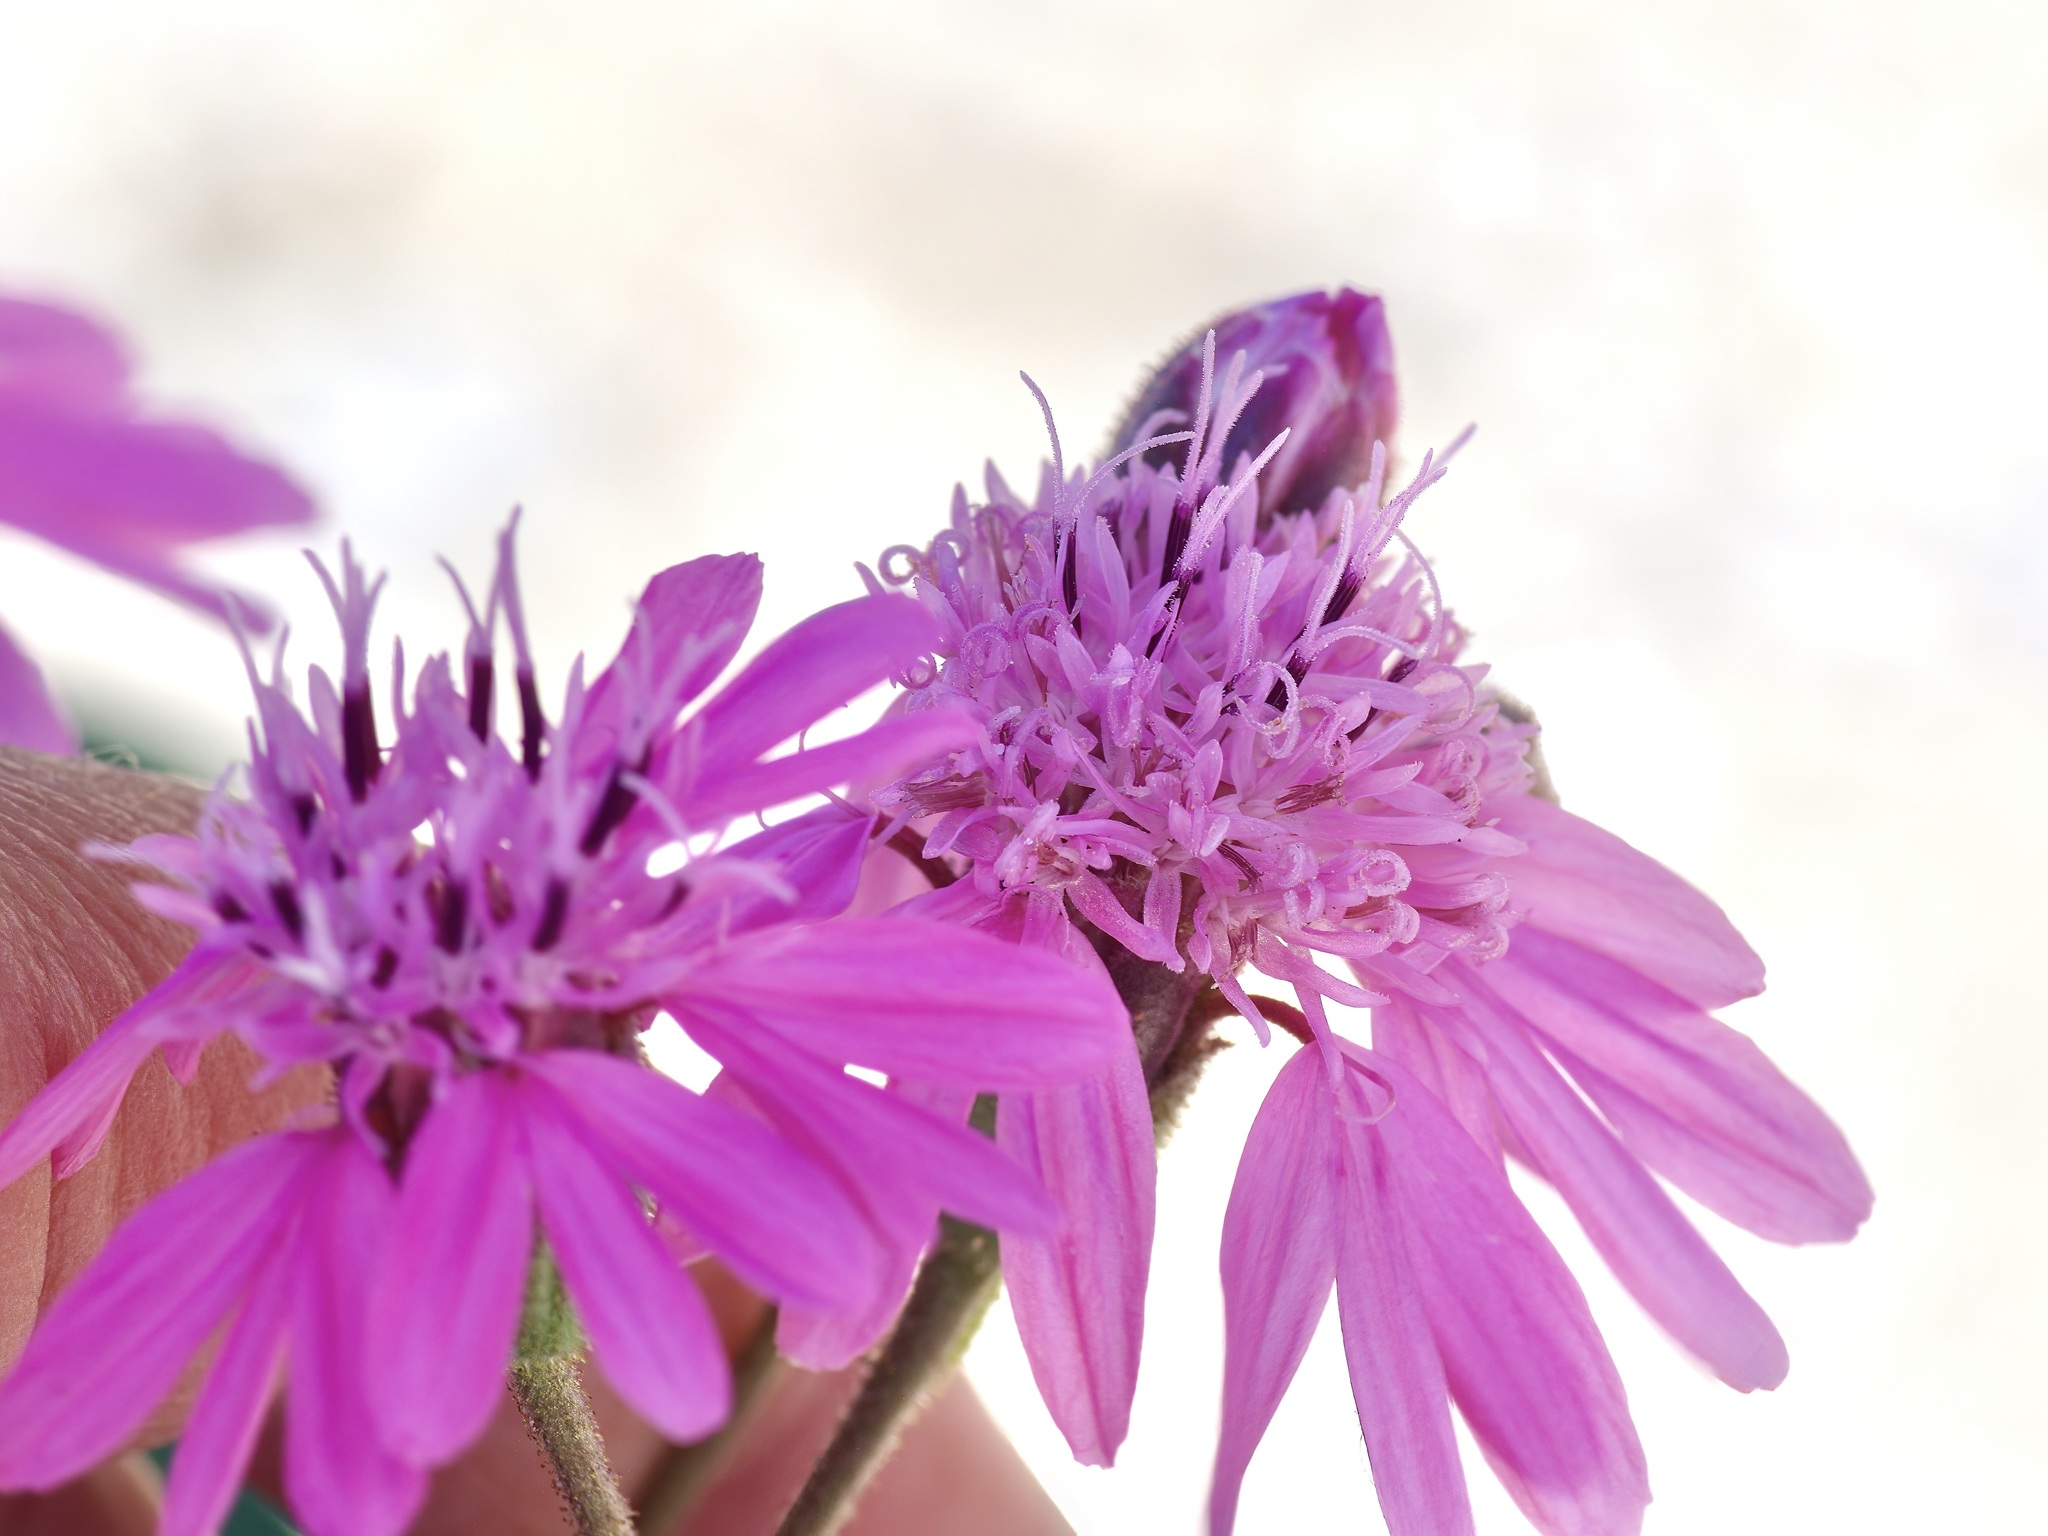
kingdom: Plantae
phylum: Tracheophyta
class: Magnoliopsida
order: Asterales
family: Asteraceae
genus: Palafoxia
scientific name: Palafoxia sphacelata
